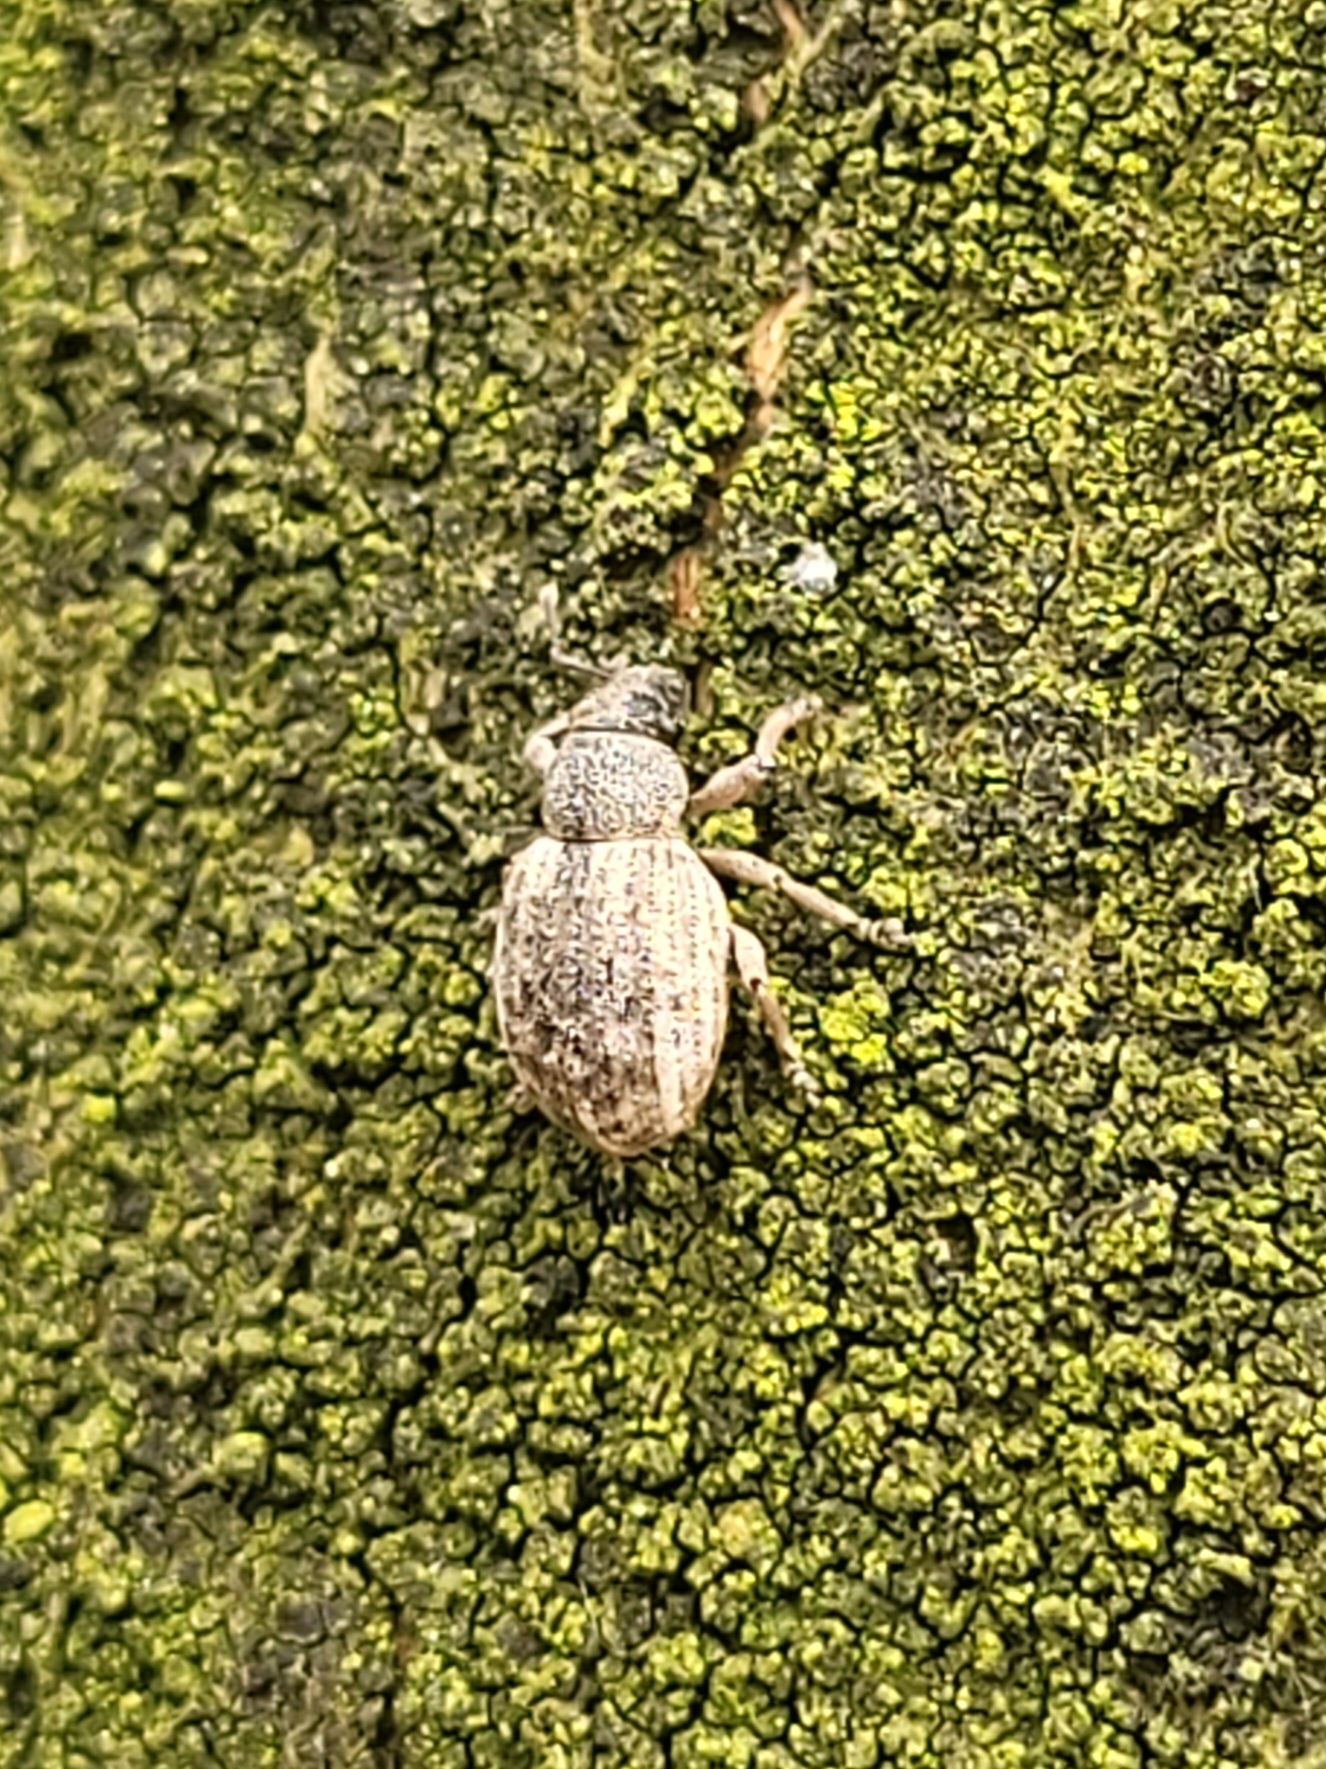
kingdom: Animalia
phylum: Arthropoda
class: Insecta
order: Coleoptera
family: Curculionidae
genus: Strophosoma
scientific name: Strophosoma capitatum
